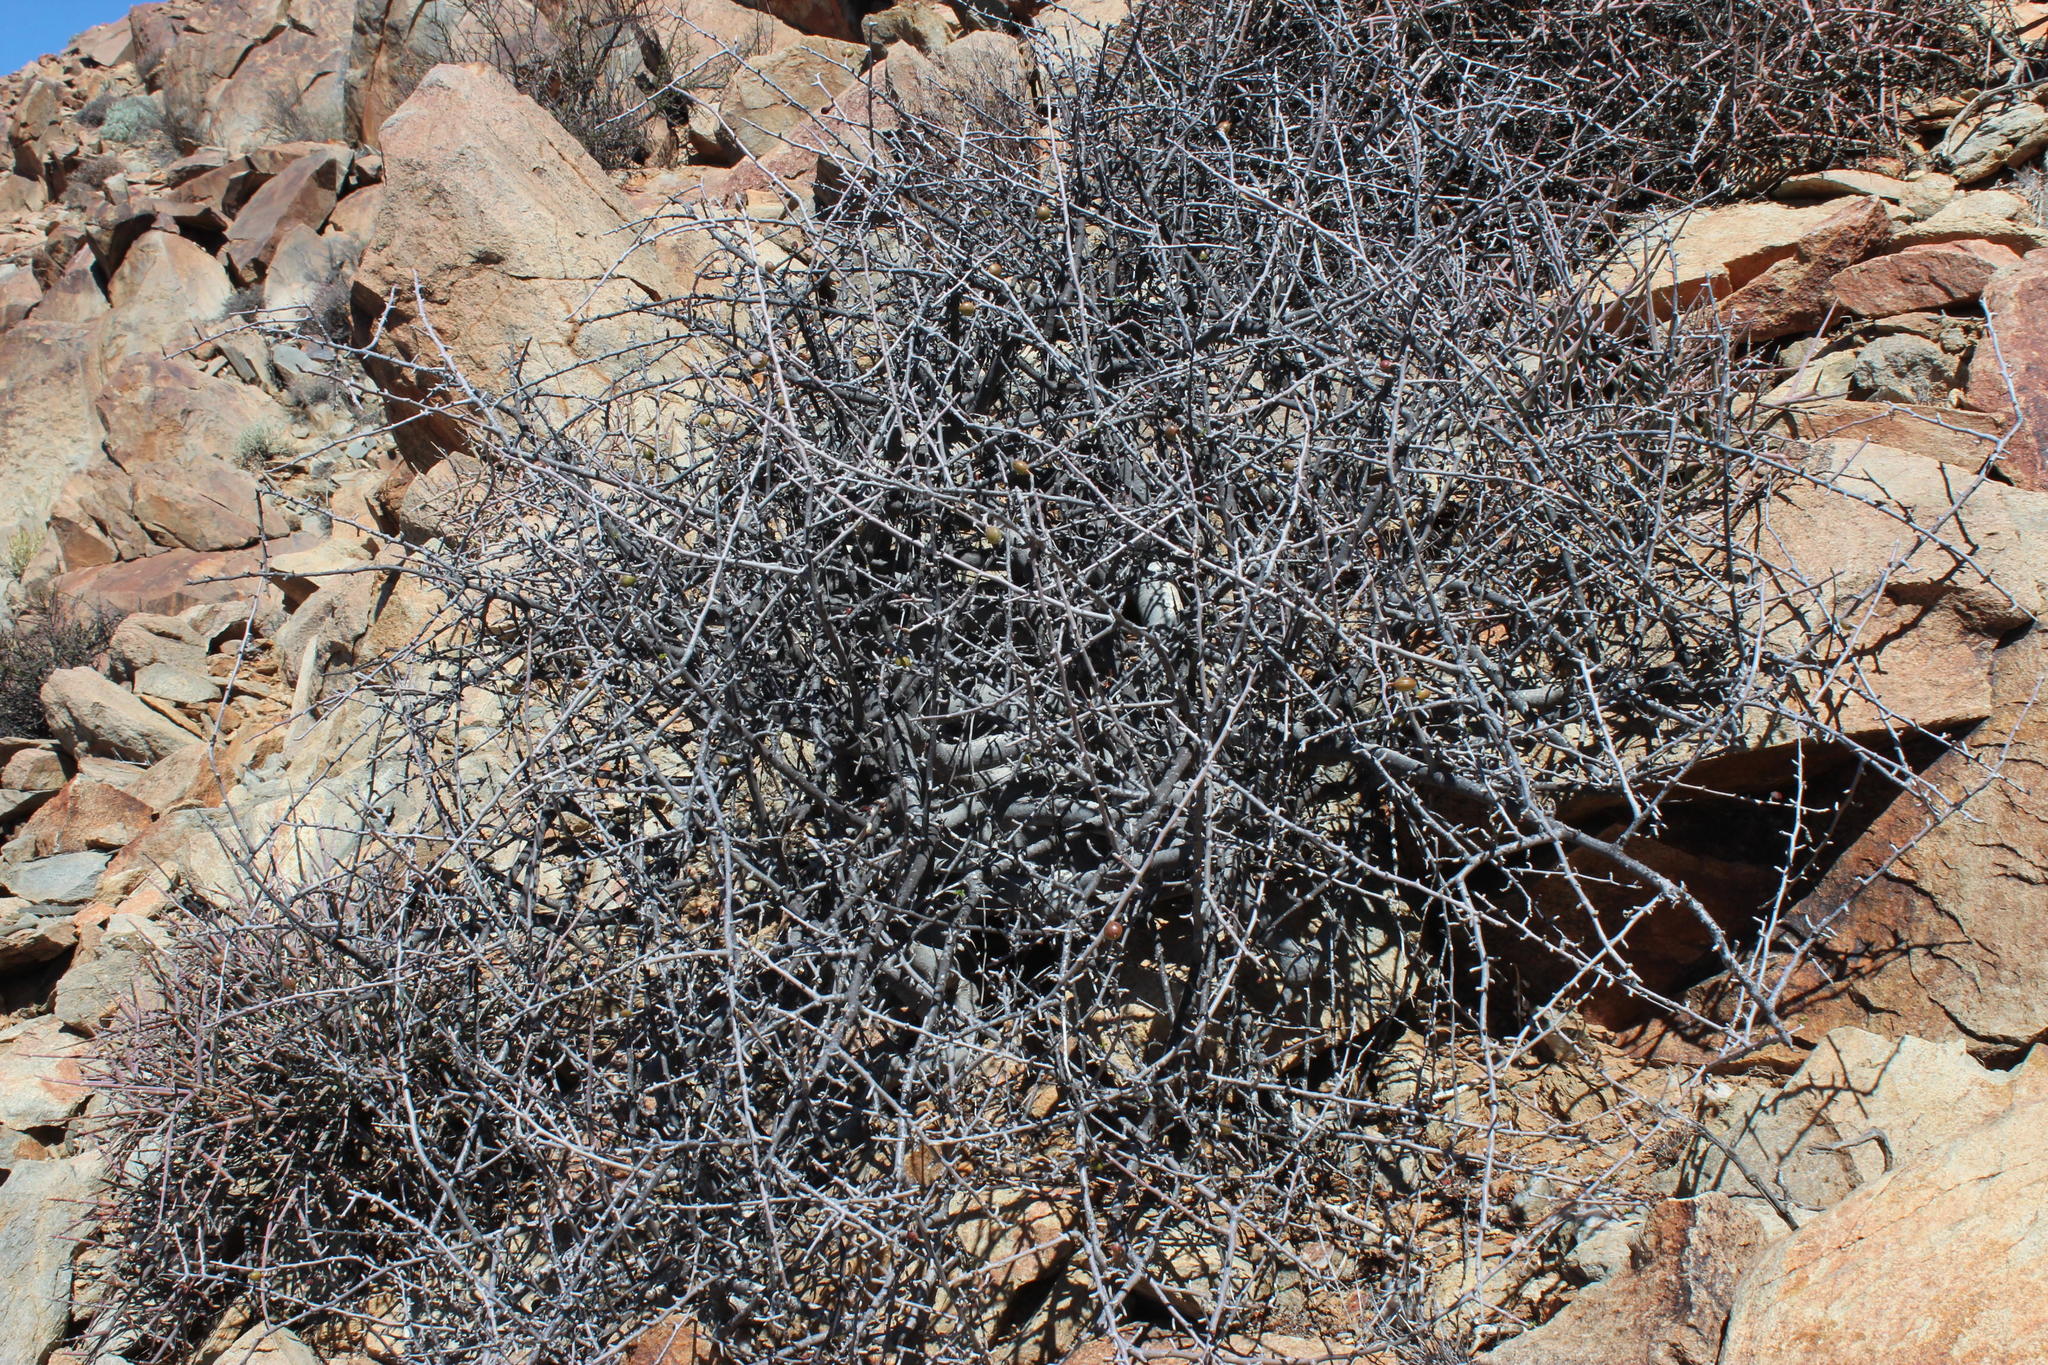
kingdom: Plantae
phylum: Tracheophyta
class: Magnoliopsida
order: Sapindales
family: Burseraceae
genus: Commiphora
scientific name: Commiphora namaensis
